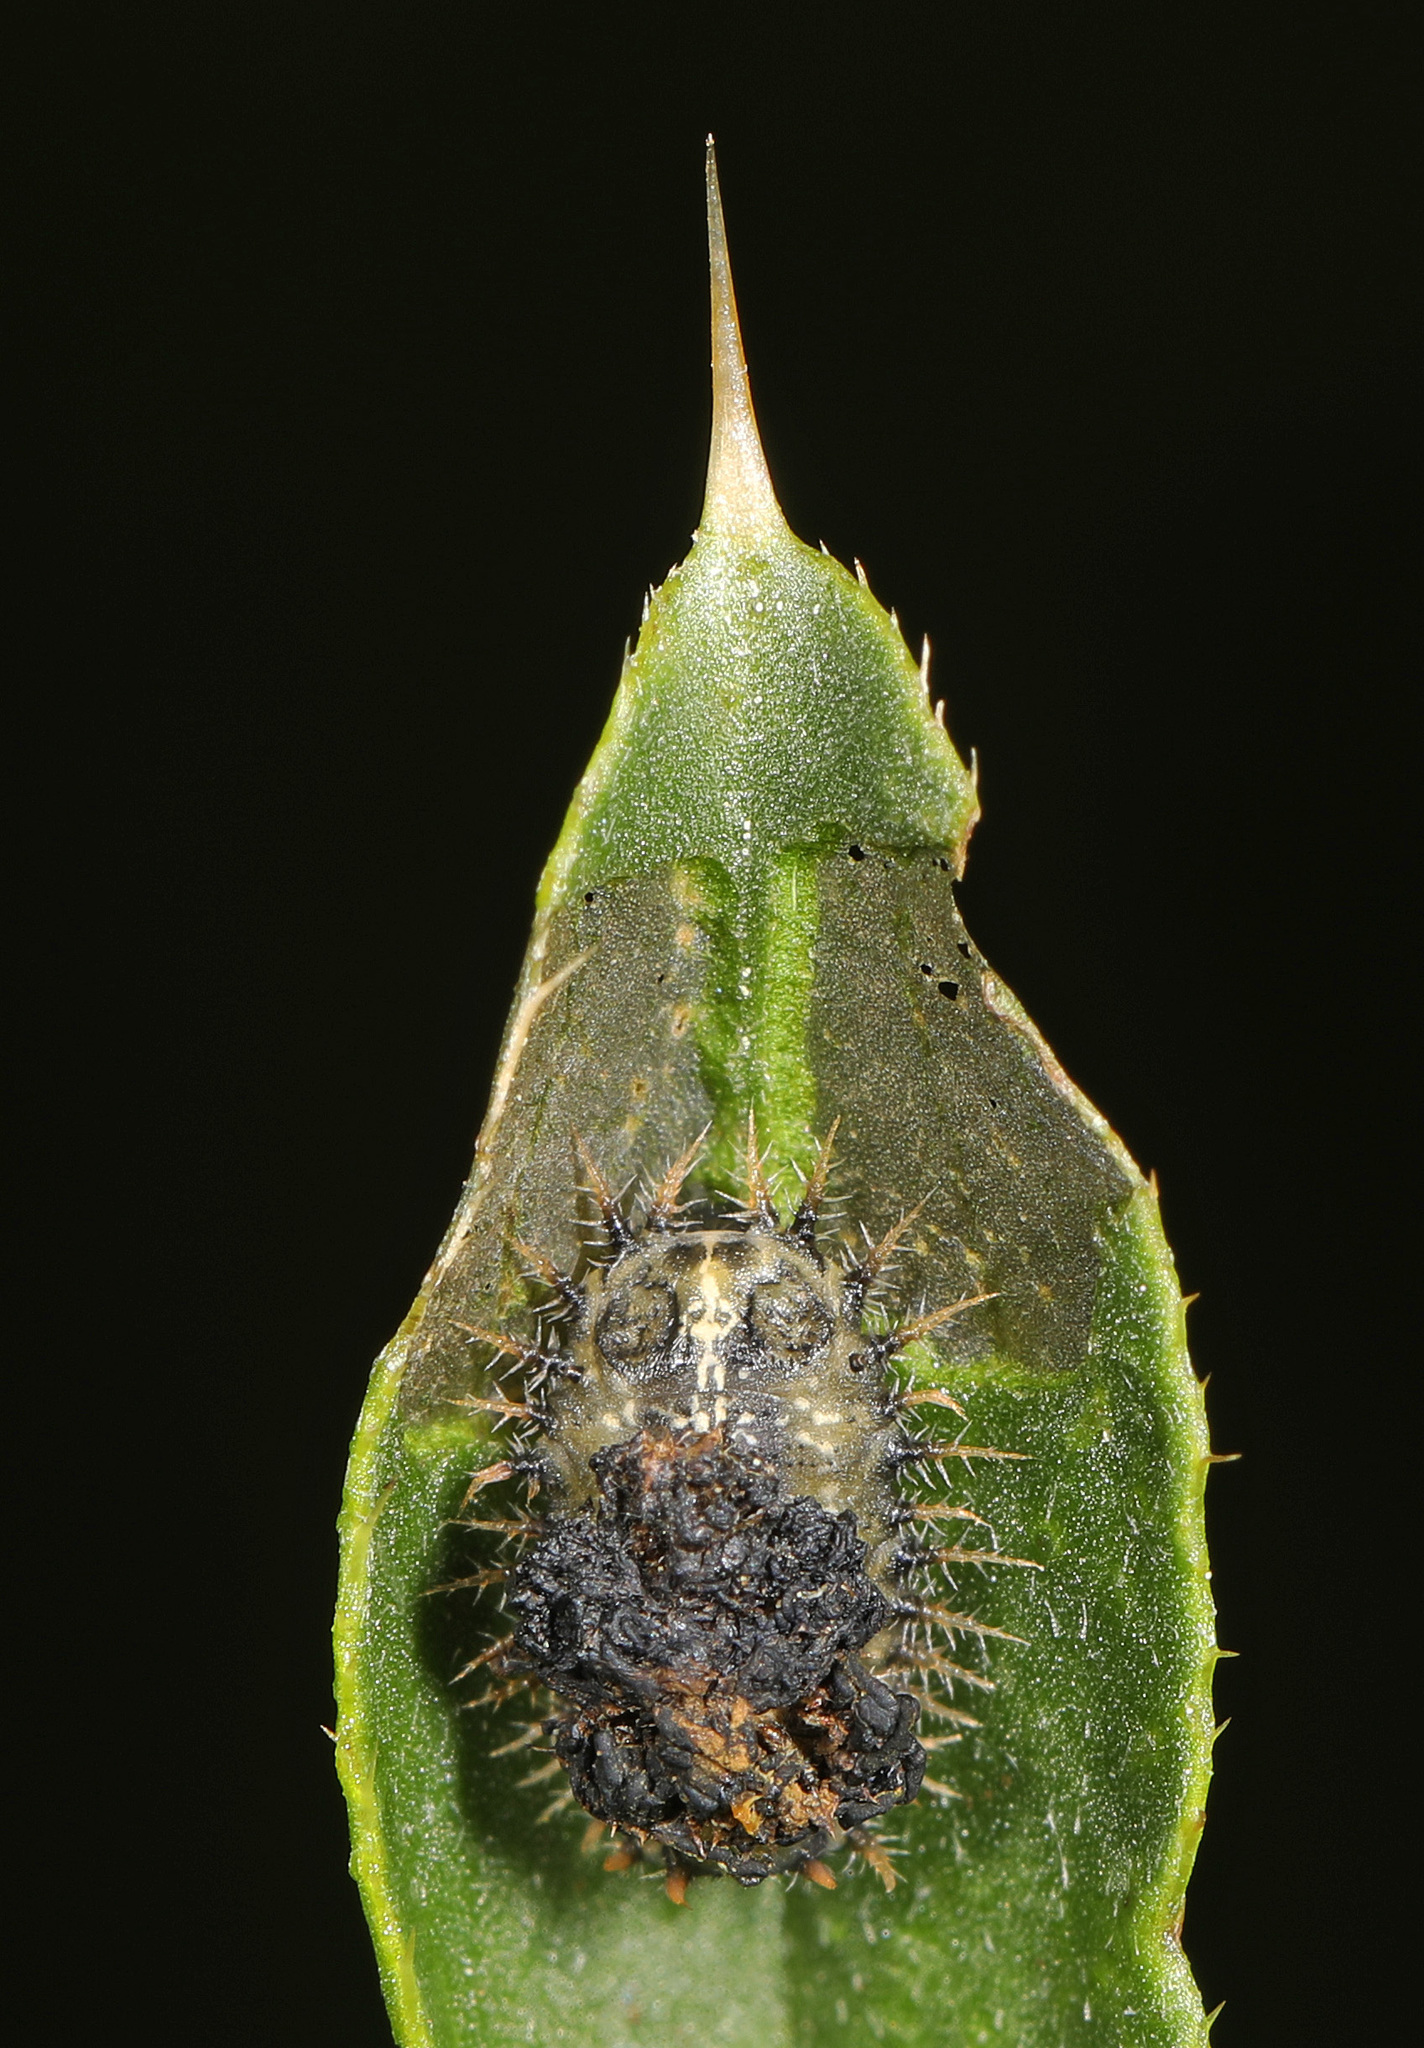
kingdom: Animalia
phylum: Arthropoda
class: Insecta
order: Coleoptera
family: Chrysomelidae
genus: Cassida
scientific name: Cassida rubiginosa
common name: Thistle tortoise beetle
